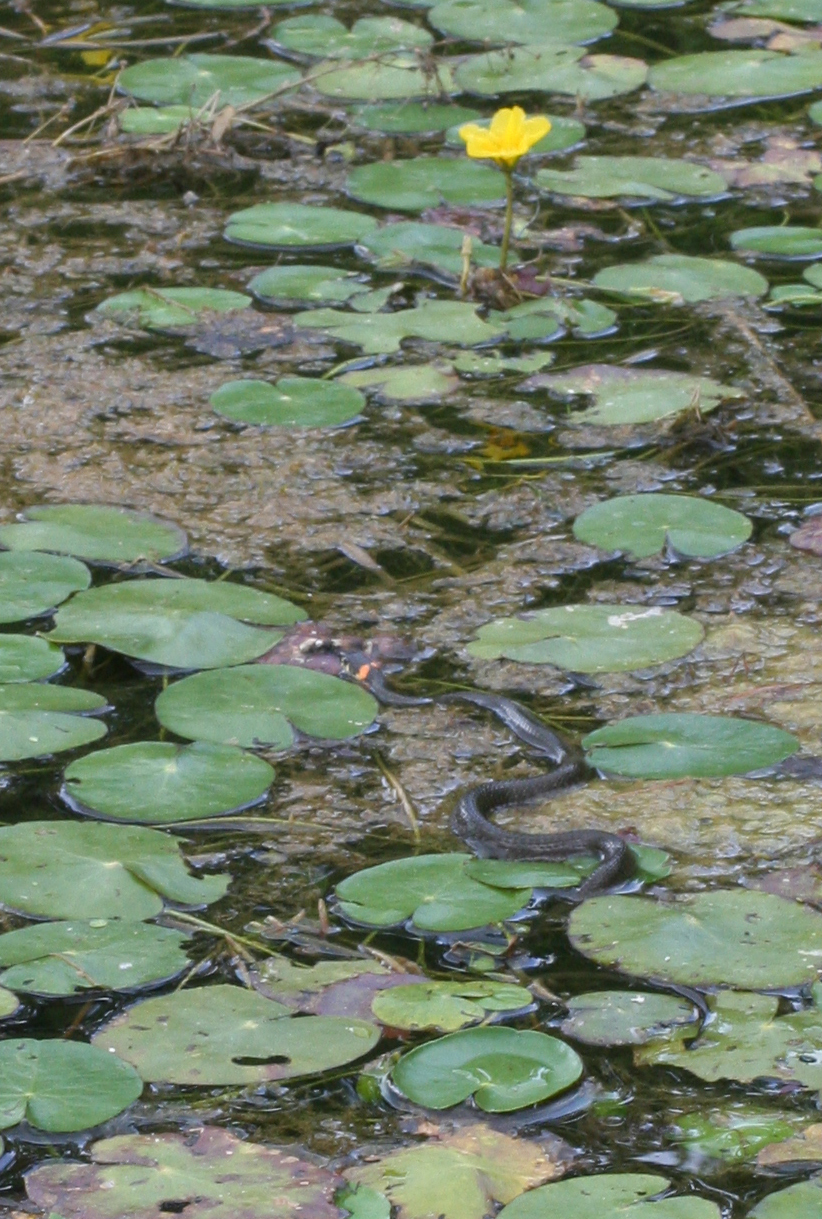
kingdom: Animalia
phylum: Chordata
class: Squamata
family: Colubridae
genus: Natrix
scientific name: Natrix natrix
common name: Grass snake
